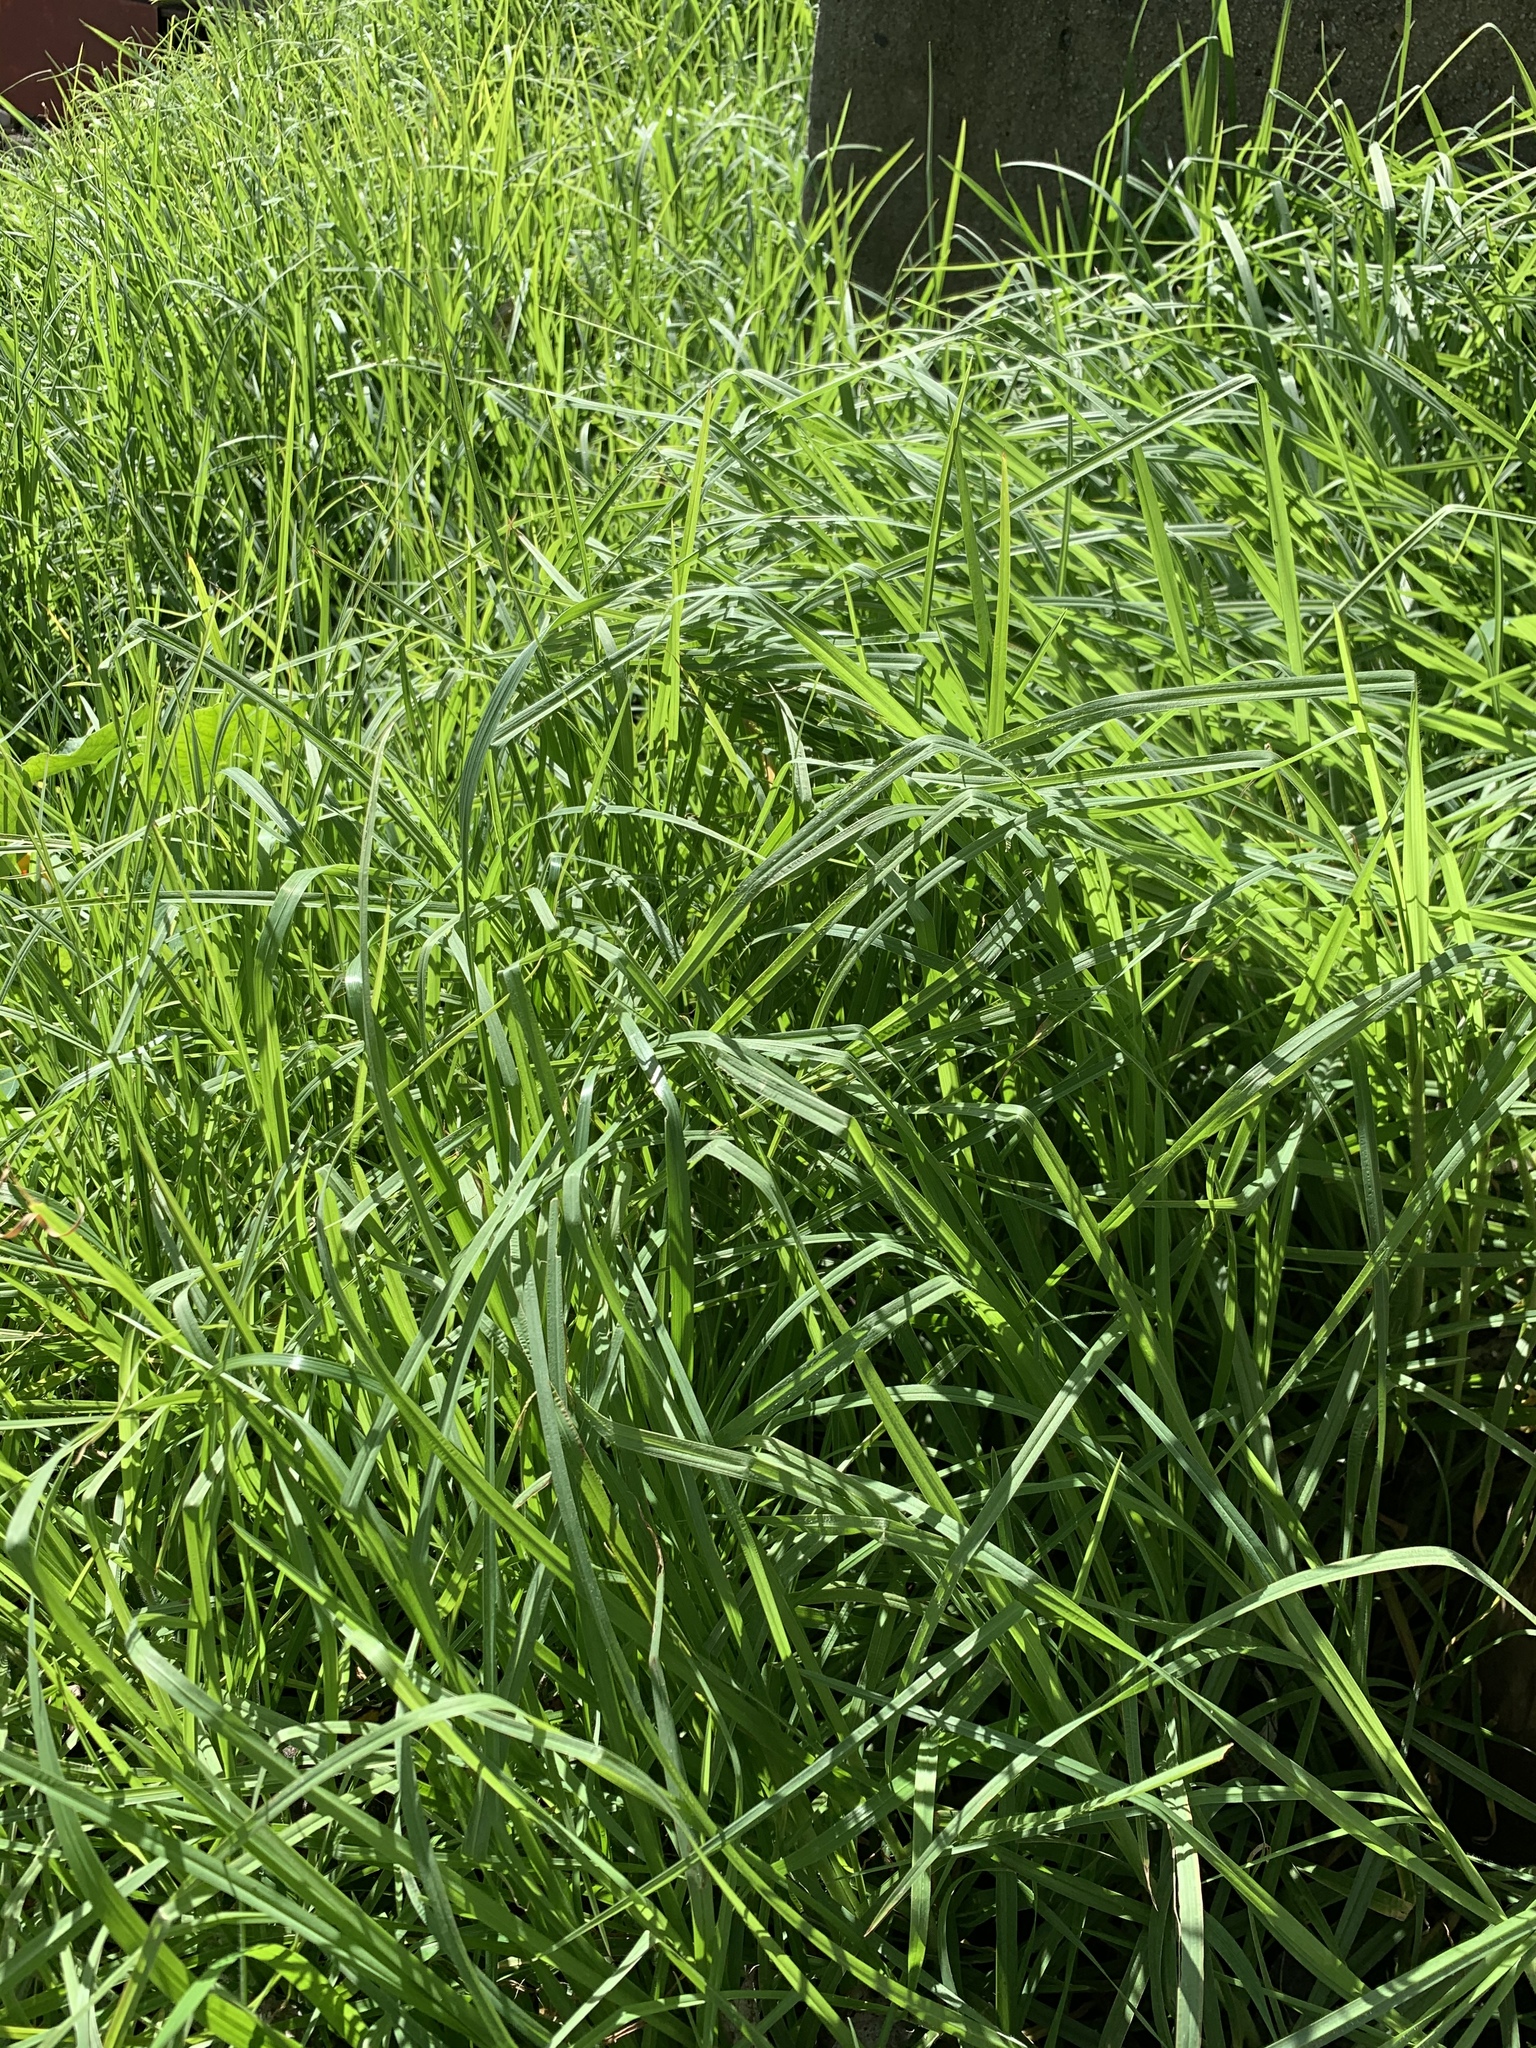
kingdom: Plantae
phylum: Tracheophyta
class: Liliopsida
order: Poales
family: Poaceae
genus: Cenchrus
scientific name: Cenchrus clandestinus
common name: Kikuyugrass
